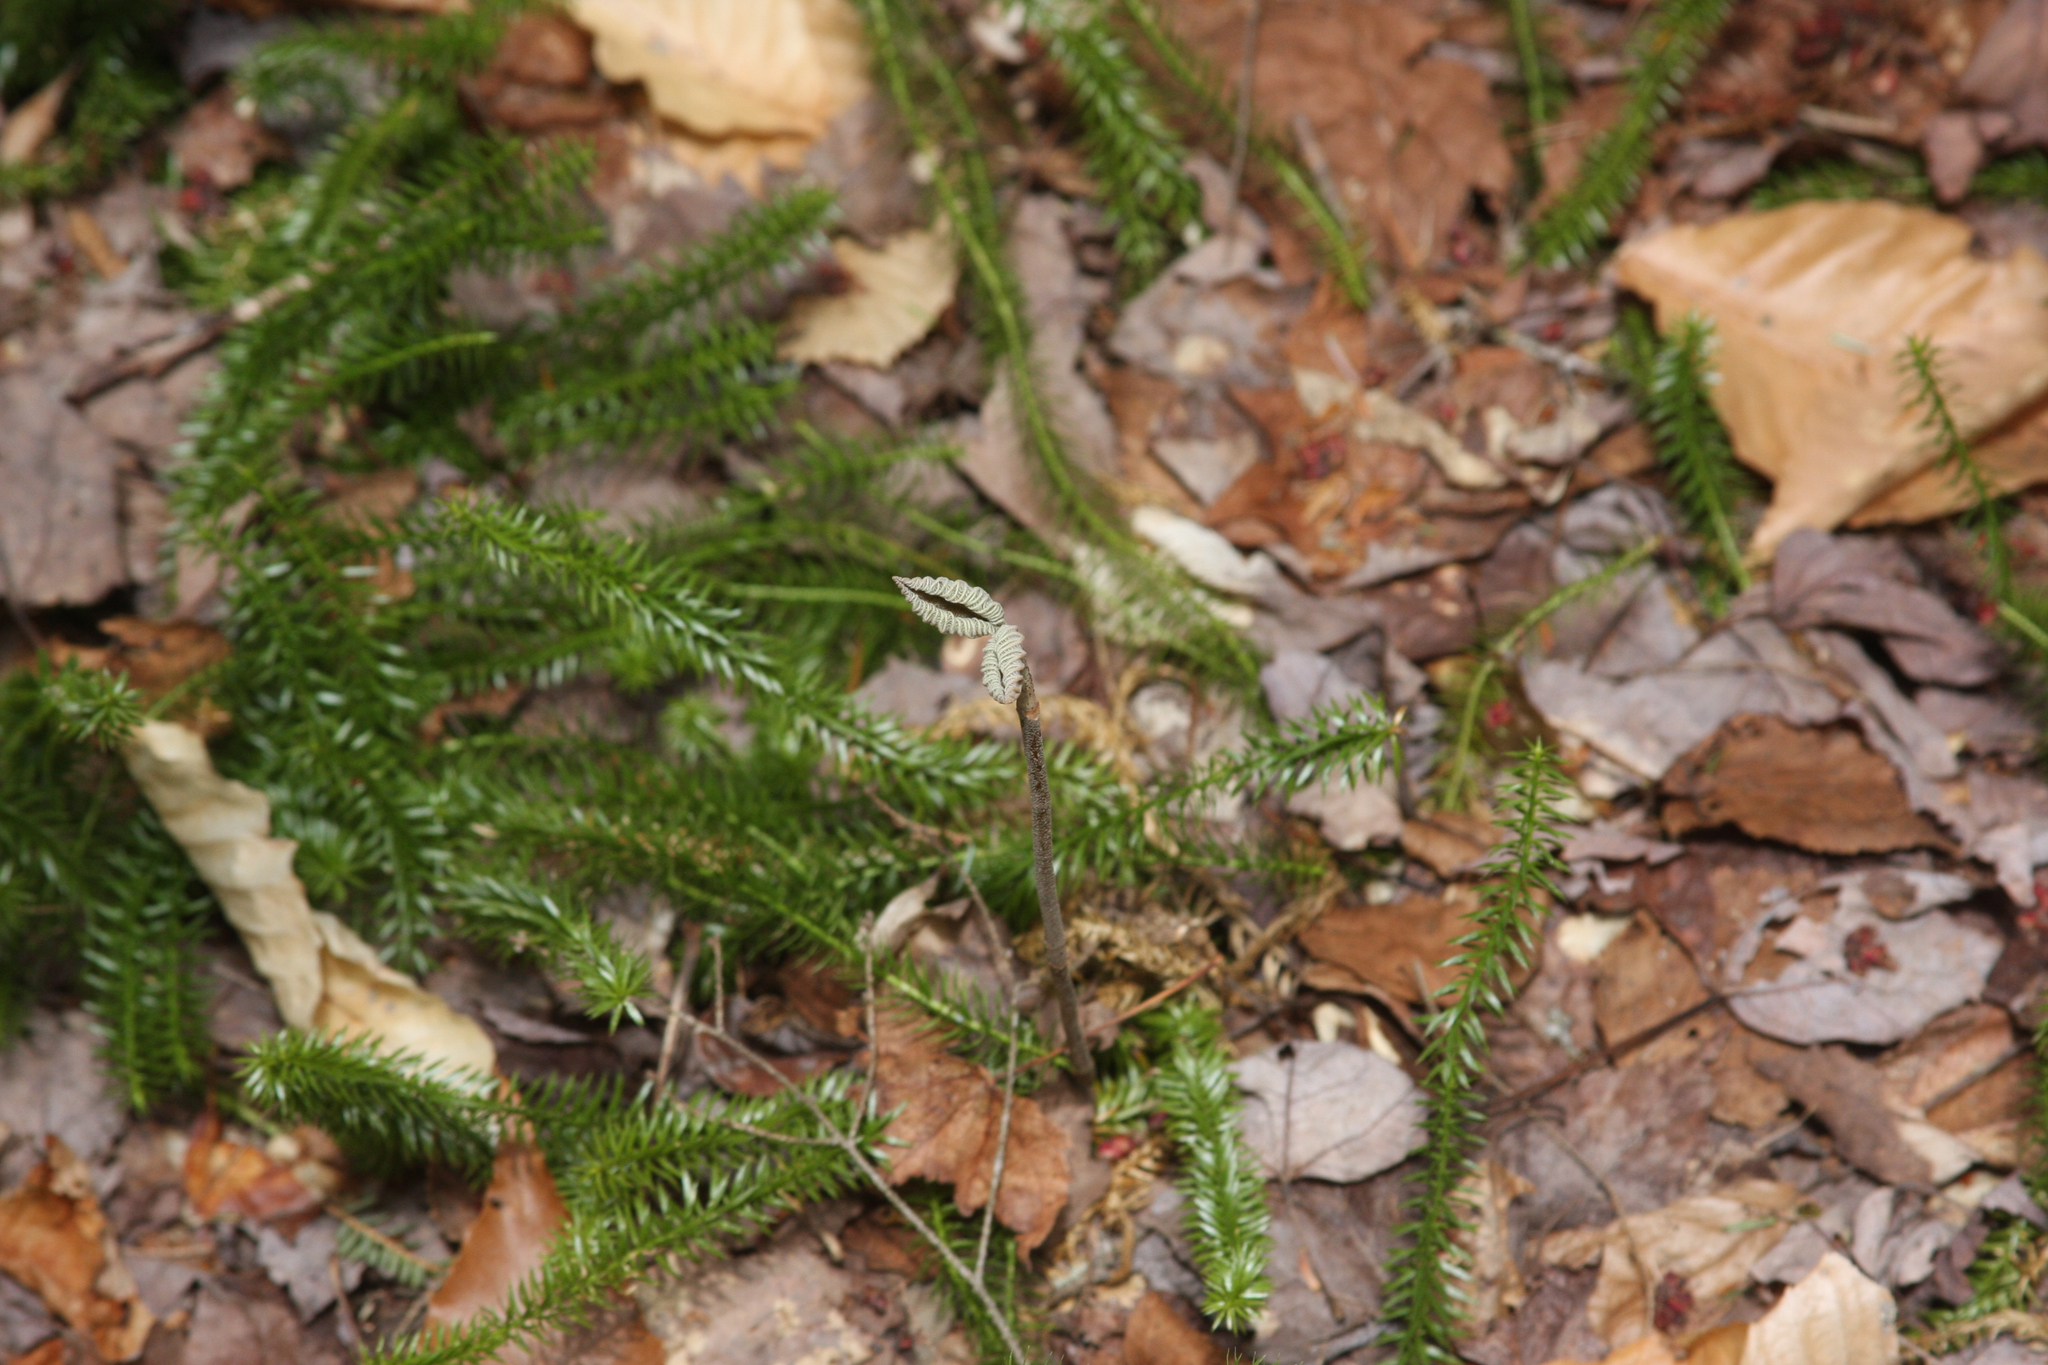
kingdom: Plantae
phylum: Tracheophyta
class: Magnoliopsida
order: Dipsacales
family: Viburnaceae
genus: Viburnum
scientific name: Viburnum lantanoides
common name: Hobblebush
